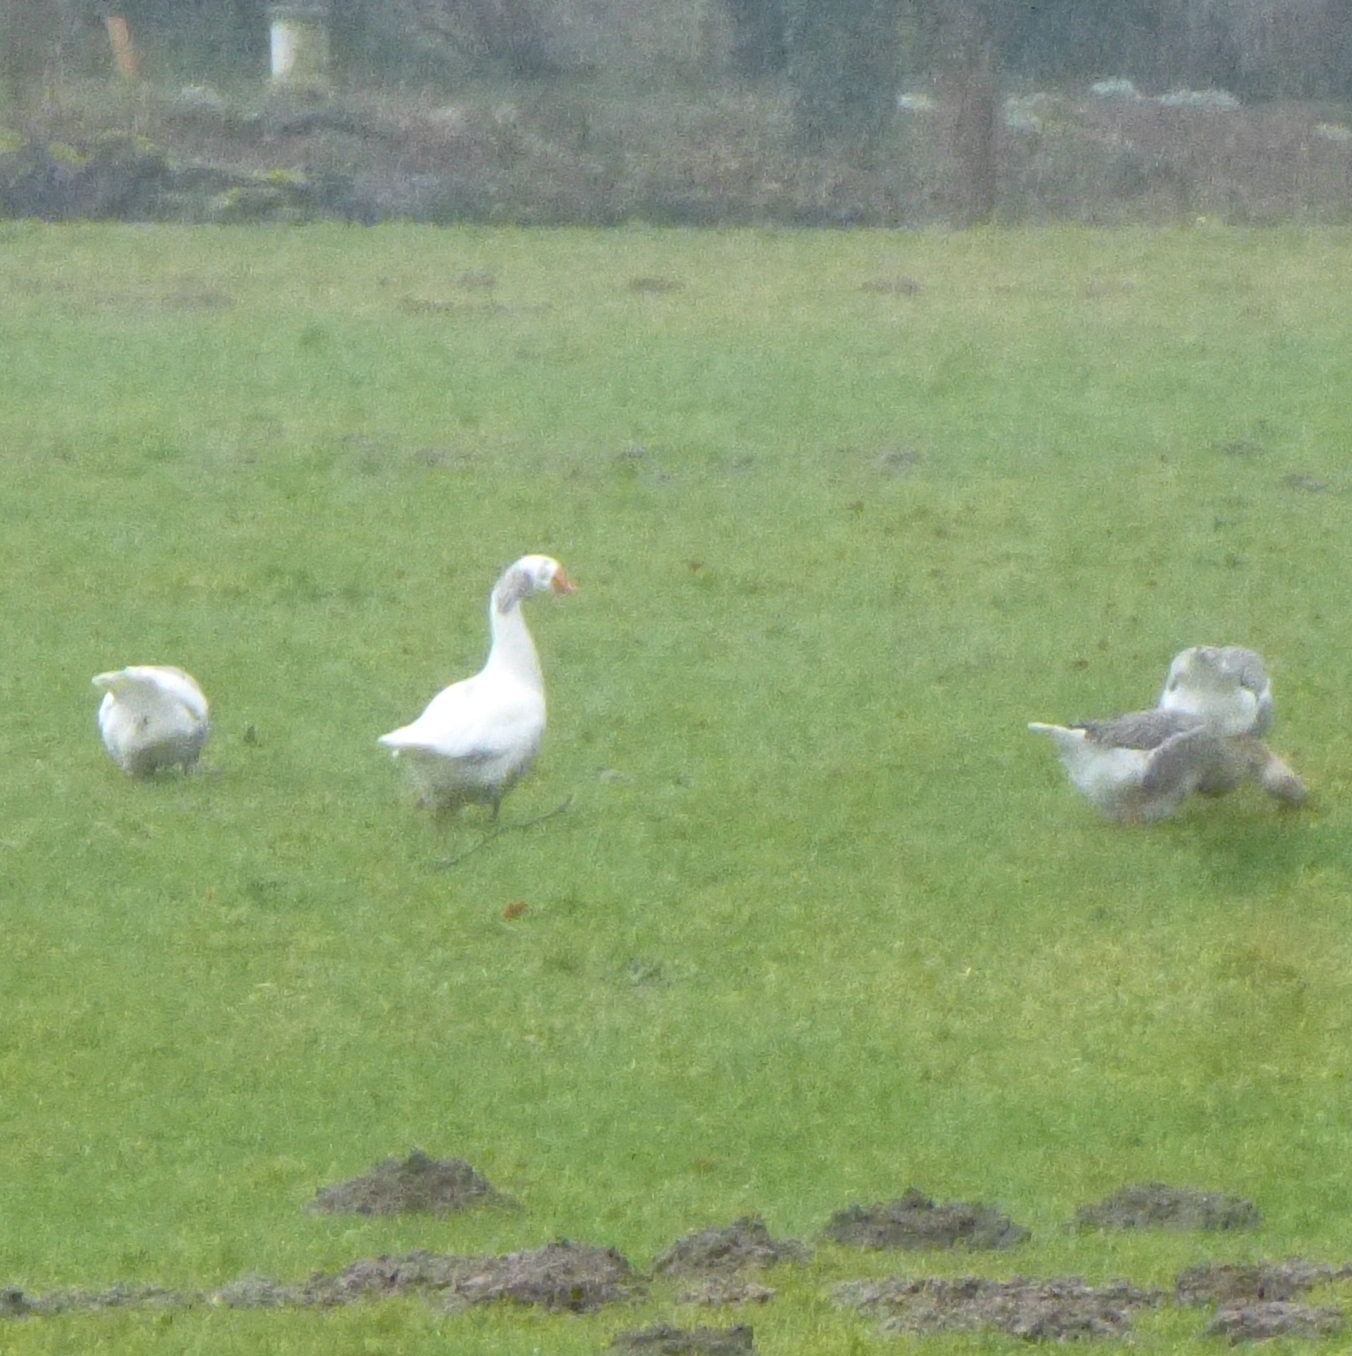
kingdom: Animalia
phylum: Chordata
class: Aves
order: Anseriformes
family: Anatidae
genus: Anser
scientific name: Anser anser
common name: Greylag goose
